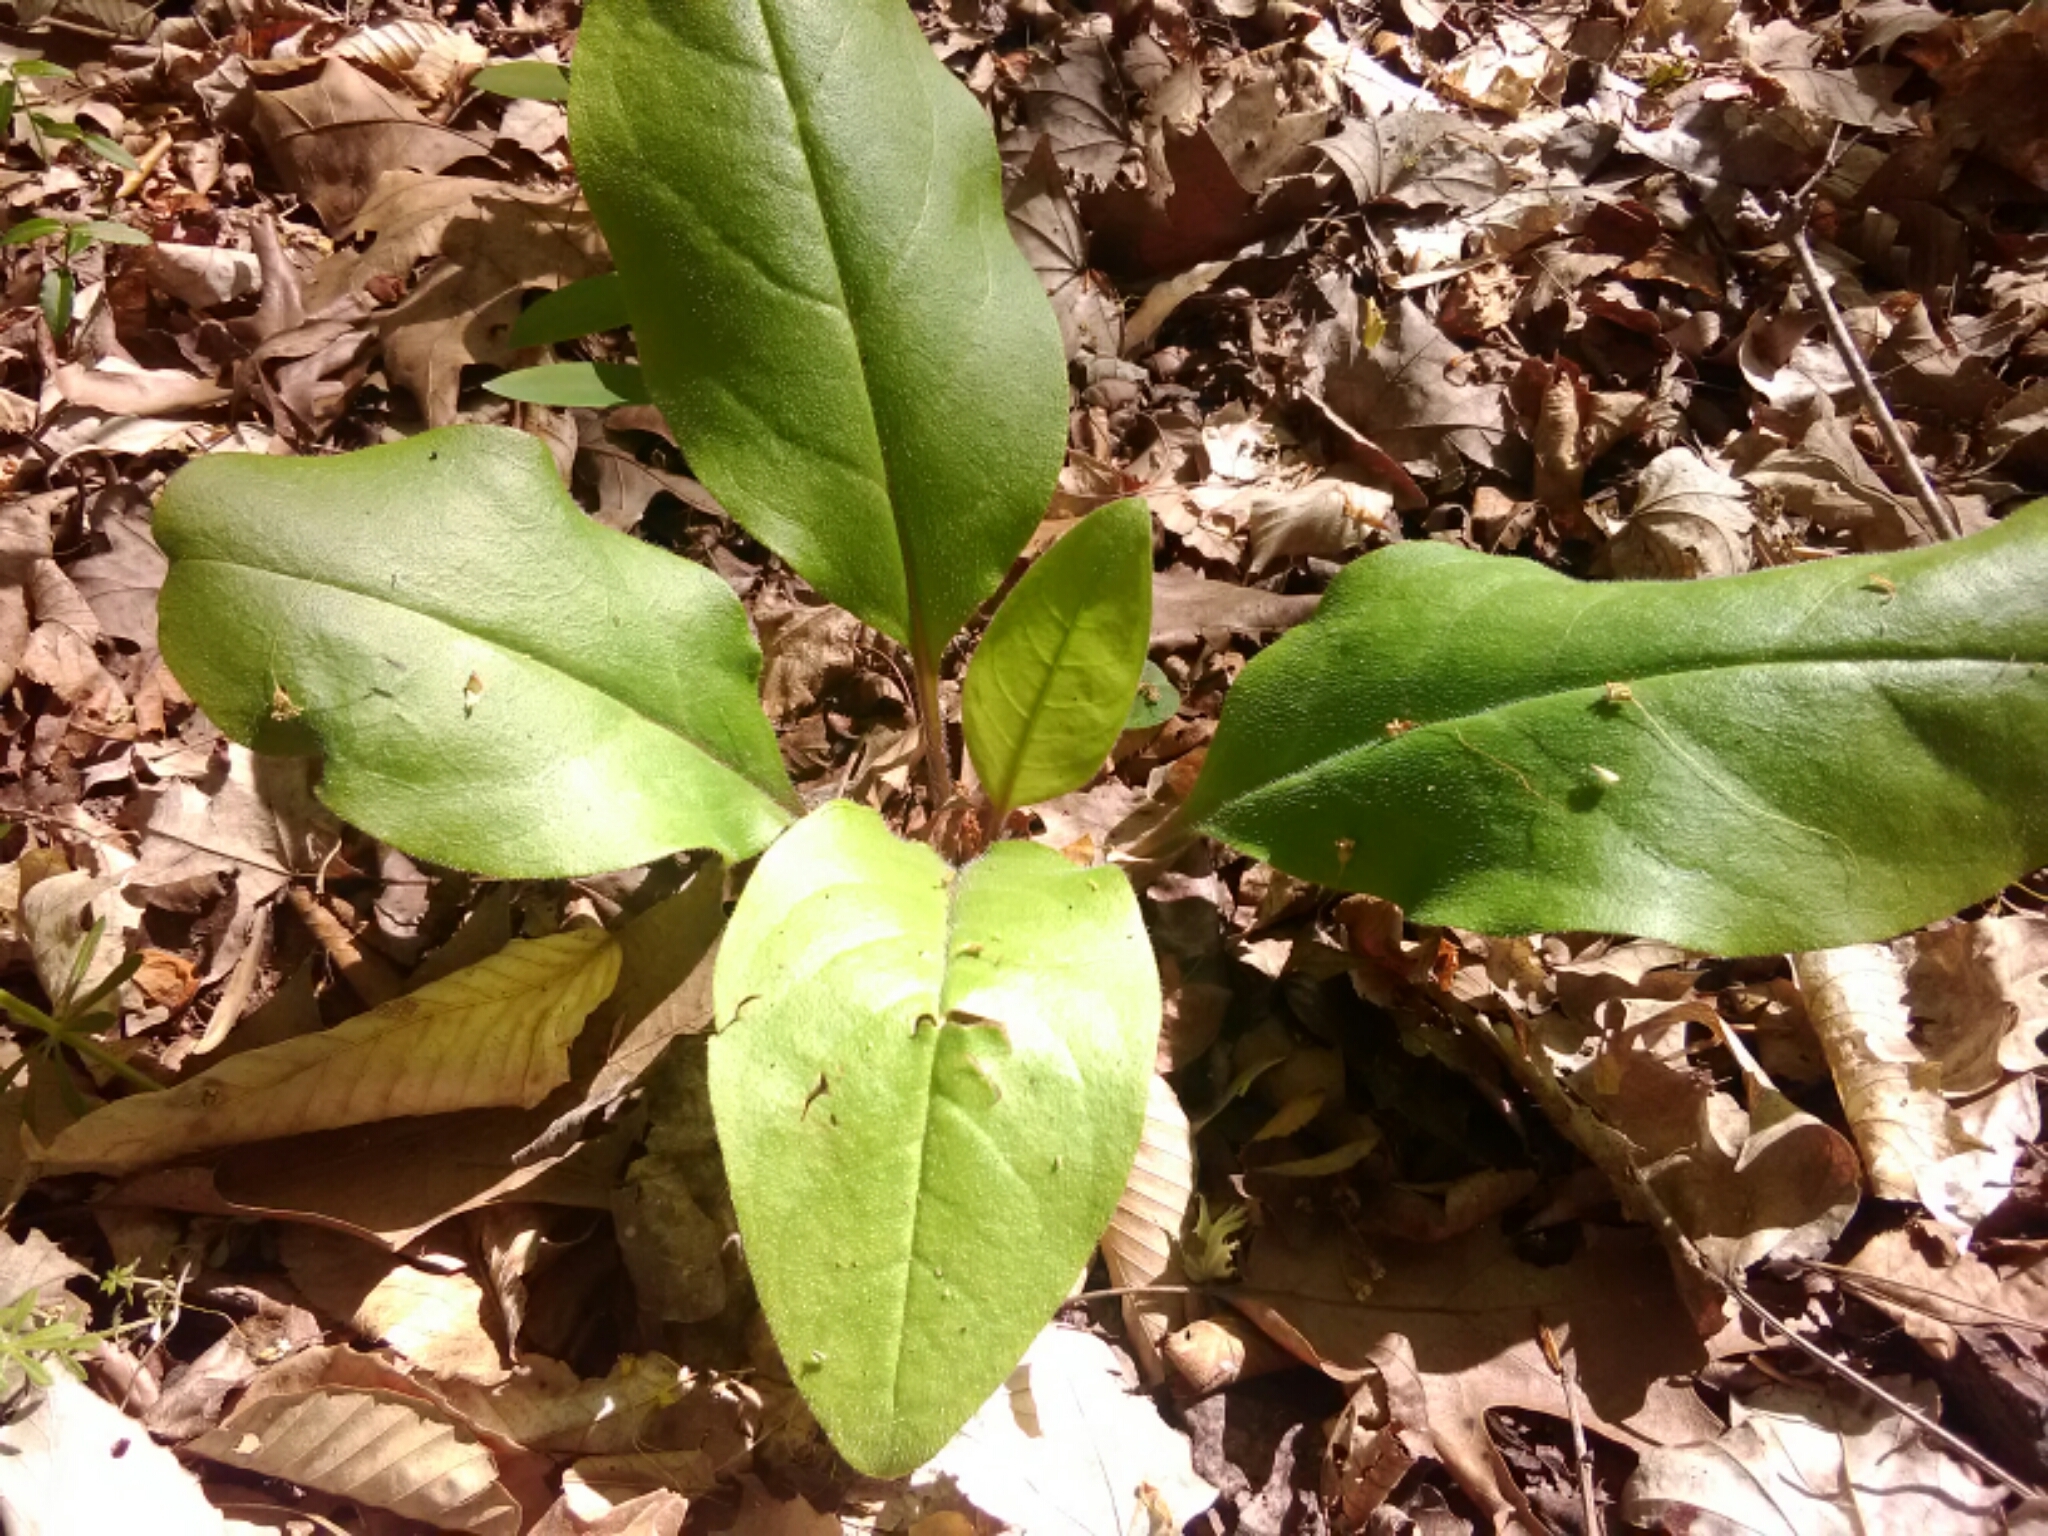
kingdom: Plantae
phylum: Tracheophyta
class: Magnoliopsida
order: Boraginales
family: Boraginaceae
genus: Andersonglossum
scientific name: Andersonglossum virginianum
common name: Wild comfrey
